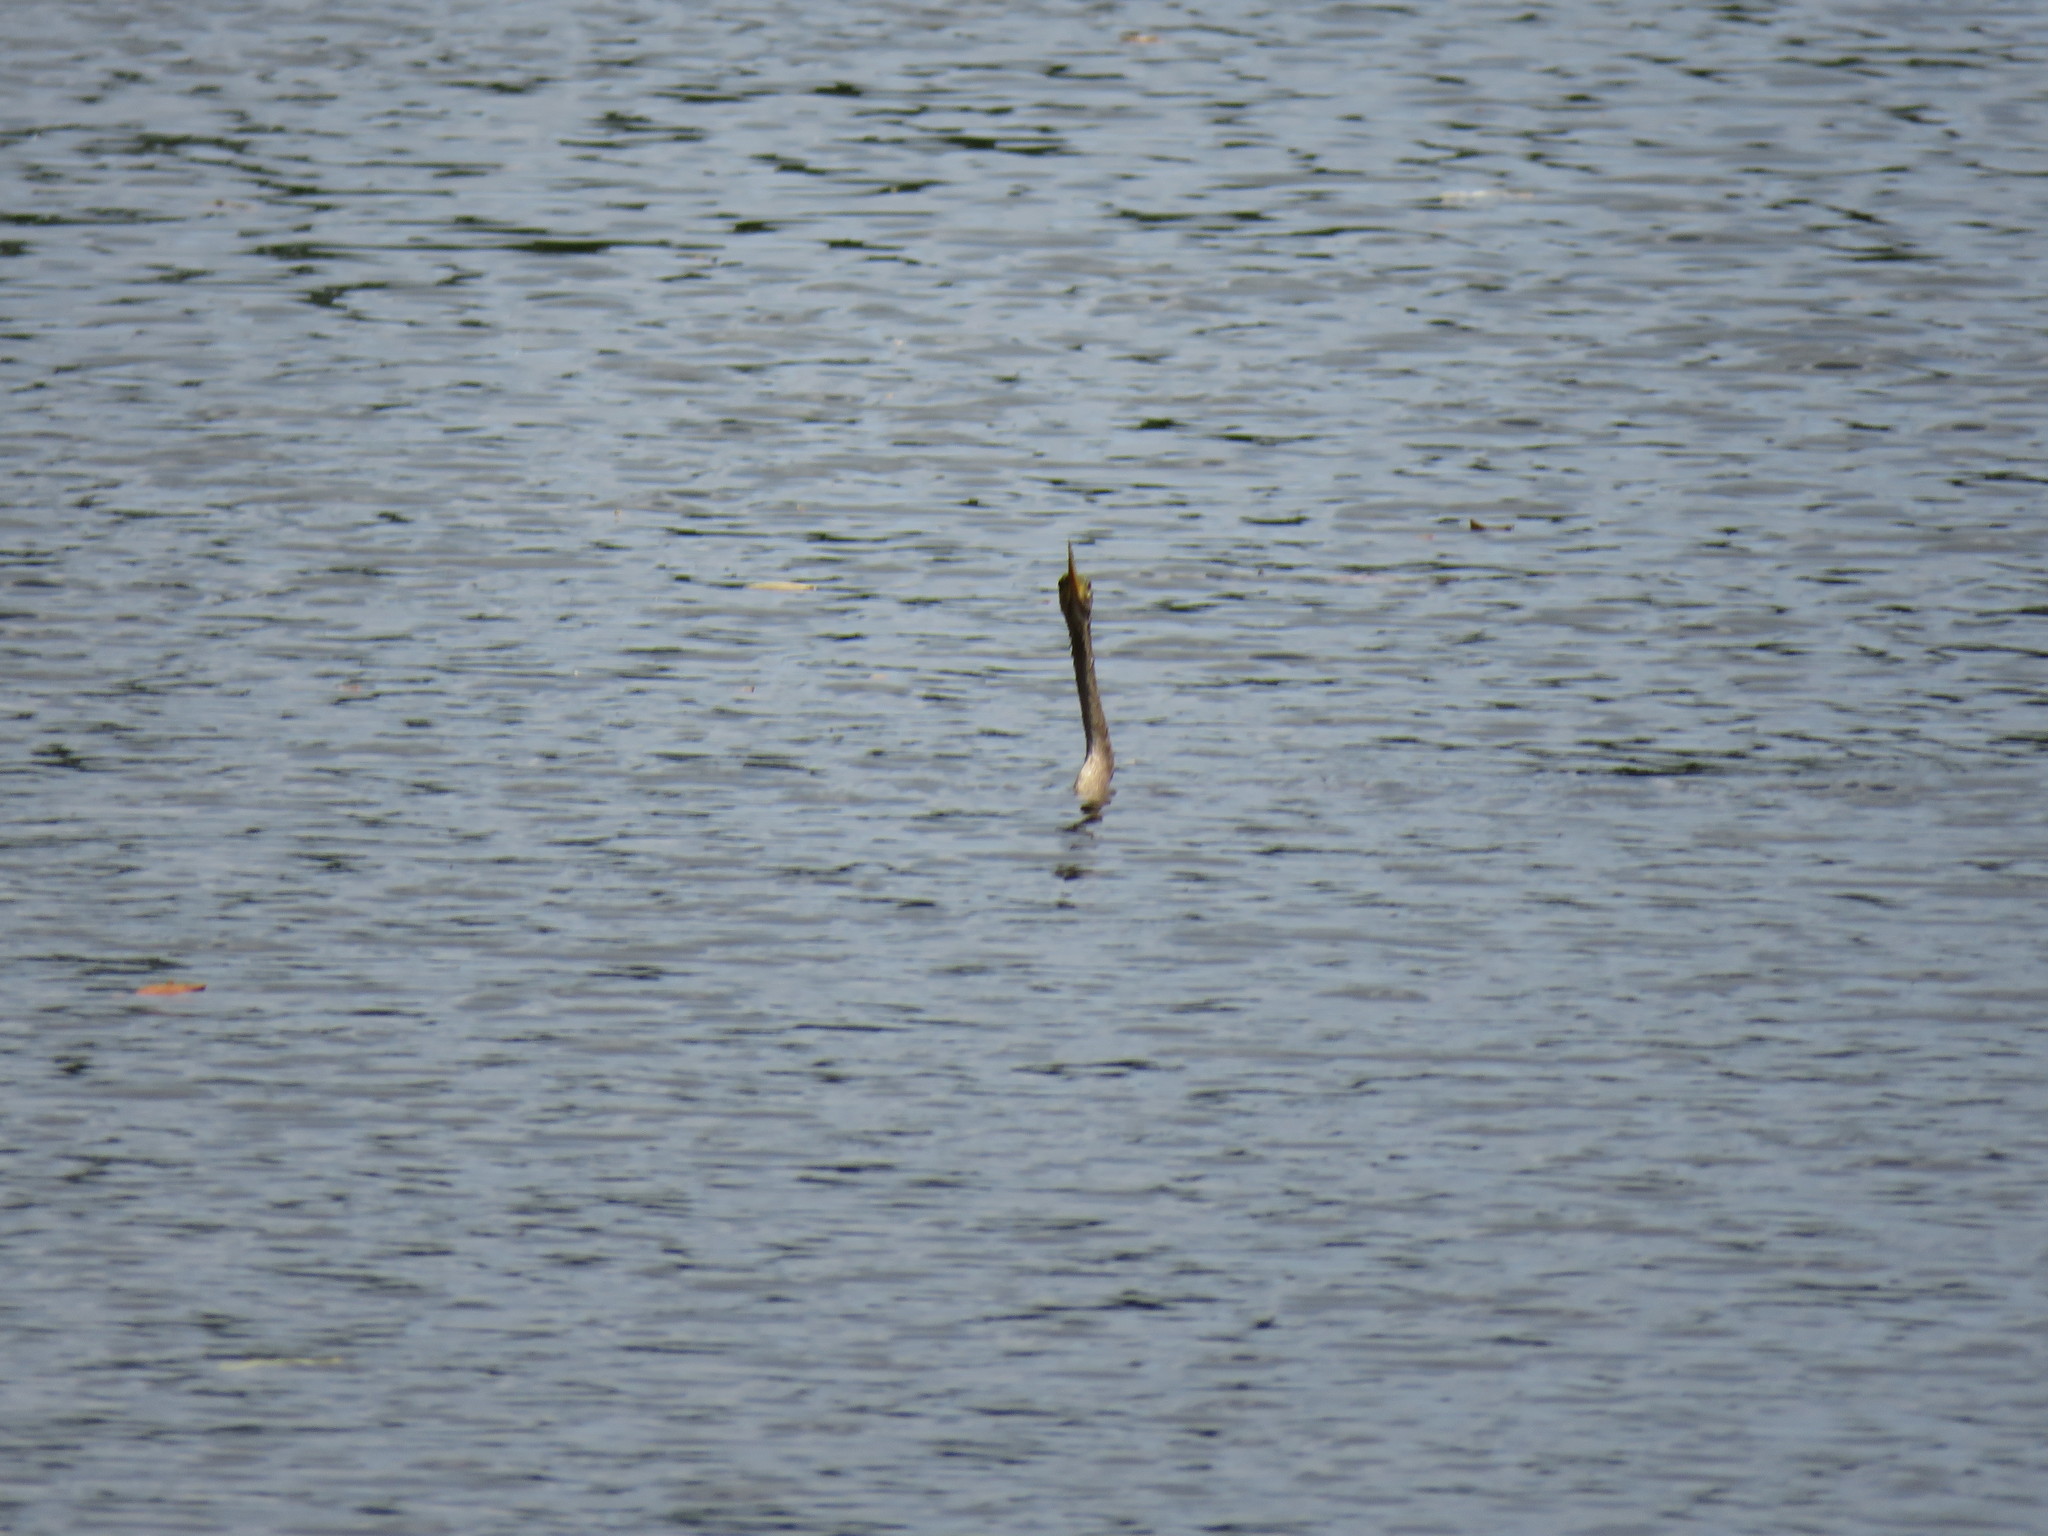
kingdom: Animalia
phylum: Chordata
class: Aves
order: Suliformes
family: Anhingidae
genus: Anhinga
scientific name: Anhinga anhinga
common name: Anhinga
